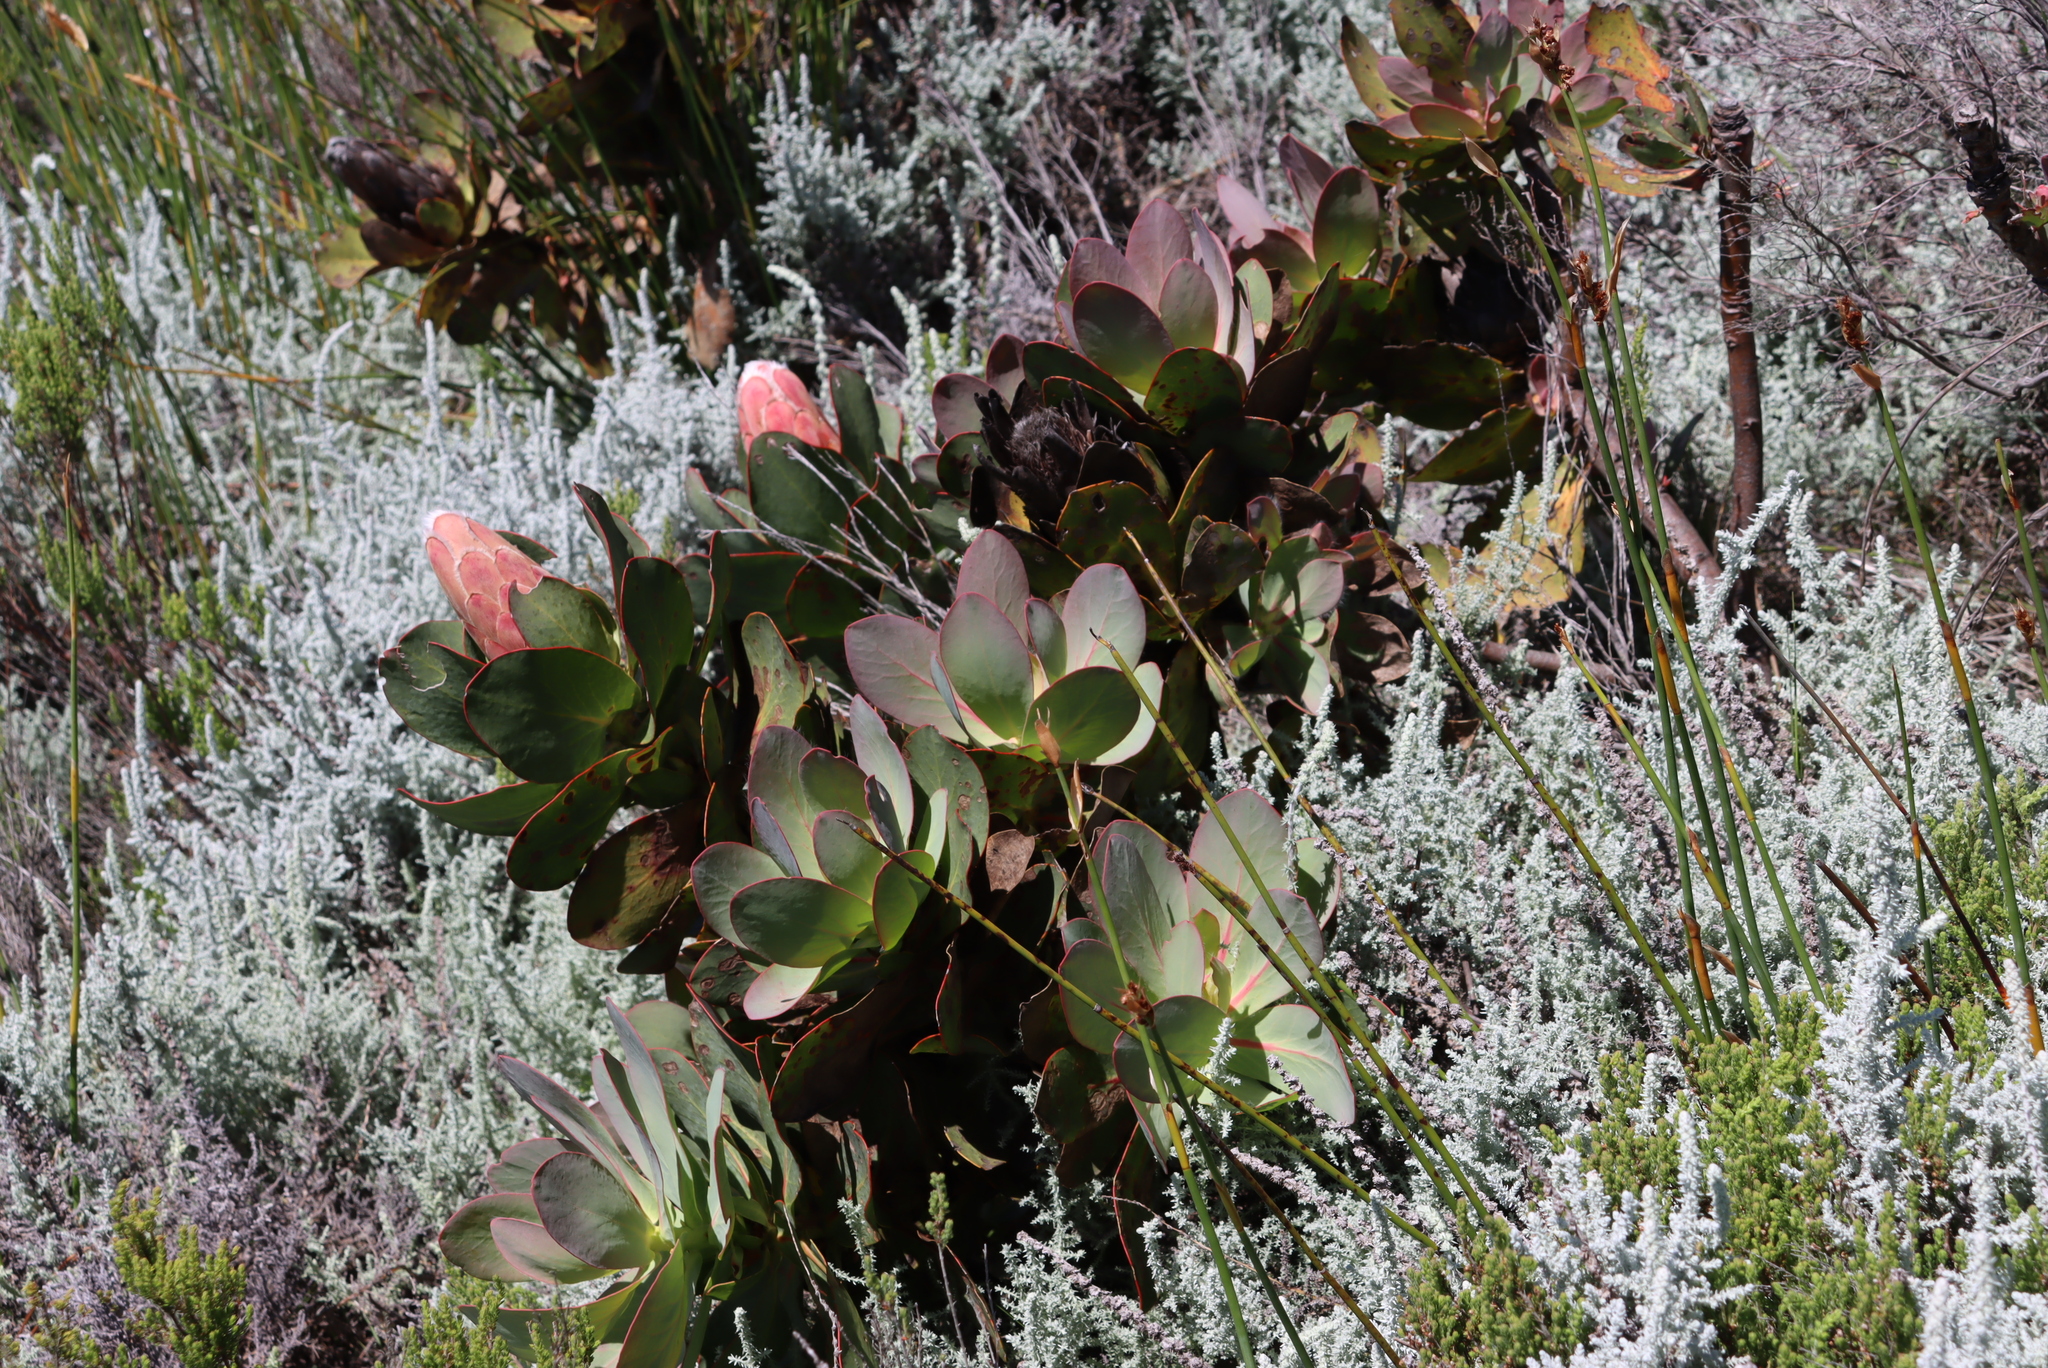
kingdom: Plantae
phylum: Tracheophyta
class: Magnoliopsida
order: Proteales
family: Proteaceae
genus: Protea
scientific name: Protea grandiceps
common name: Red sugarbush
